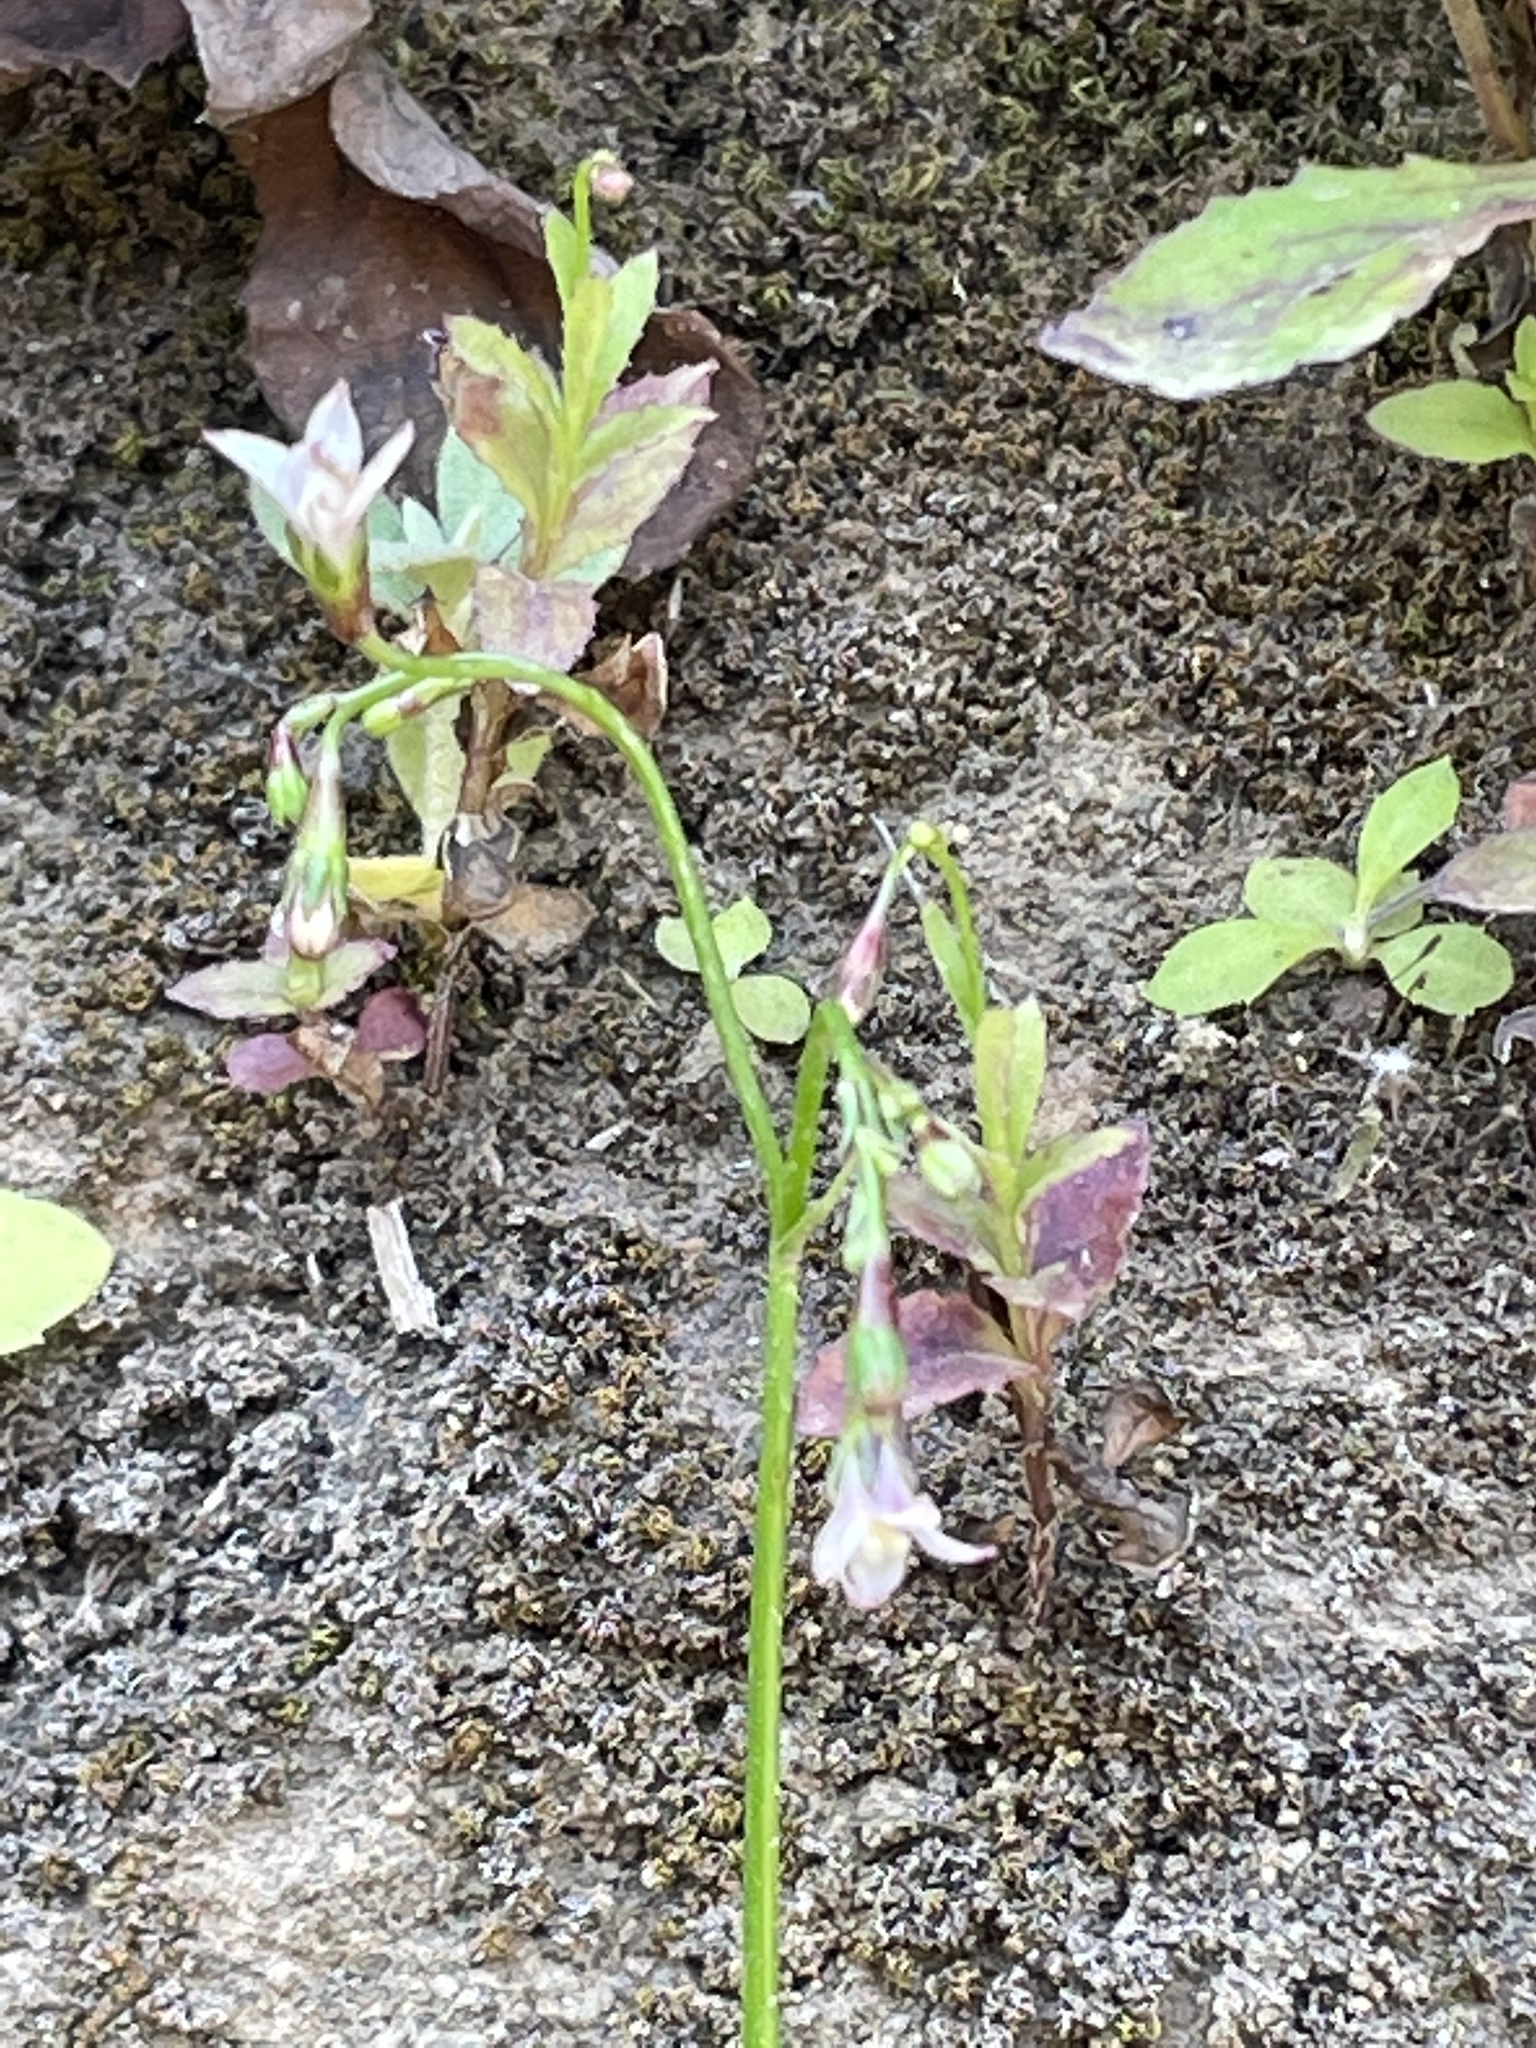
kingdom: Plantae
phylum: Tracheophyta
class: Magnoliopsida
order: Asterales
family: Campanulaceae
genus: Wahlenbergia
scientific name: Wahlenbergia lobelioides
